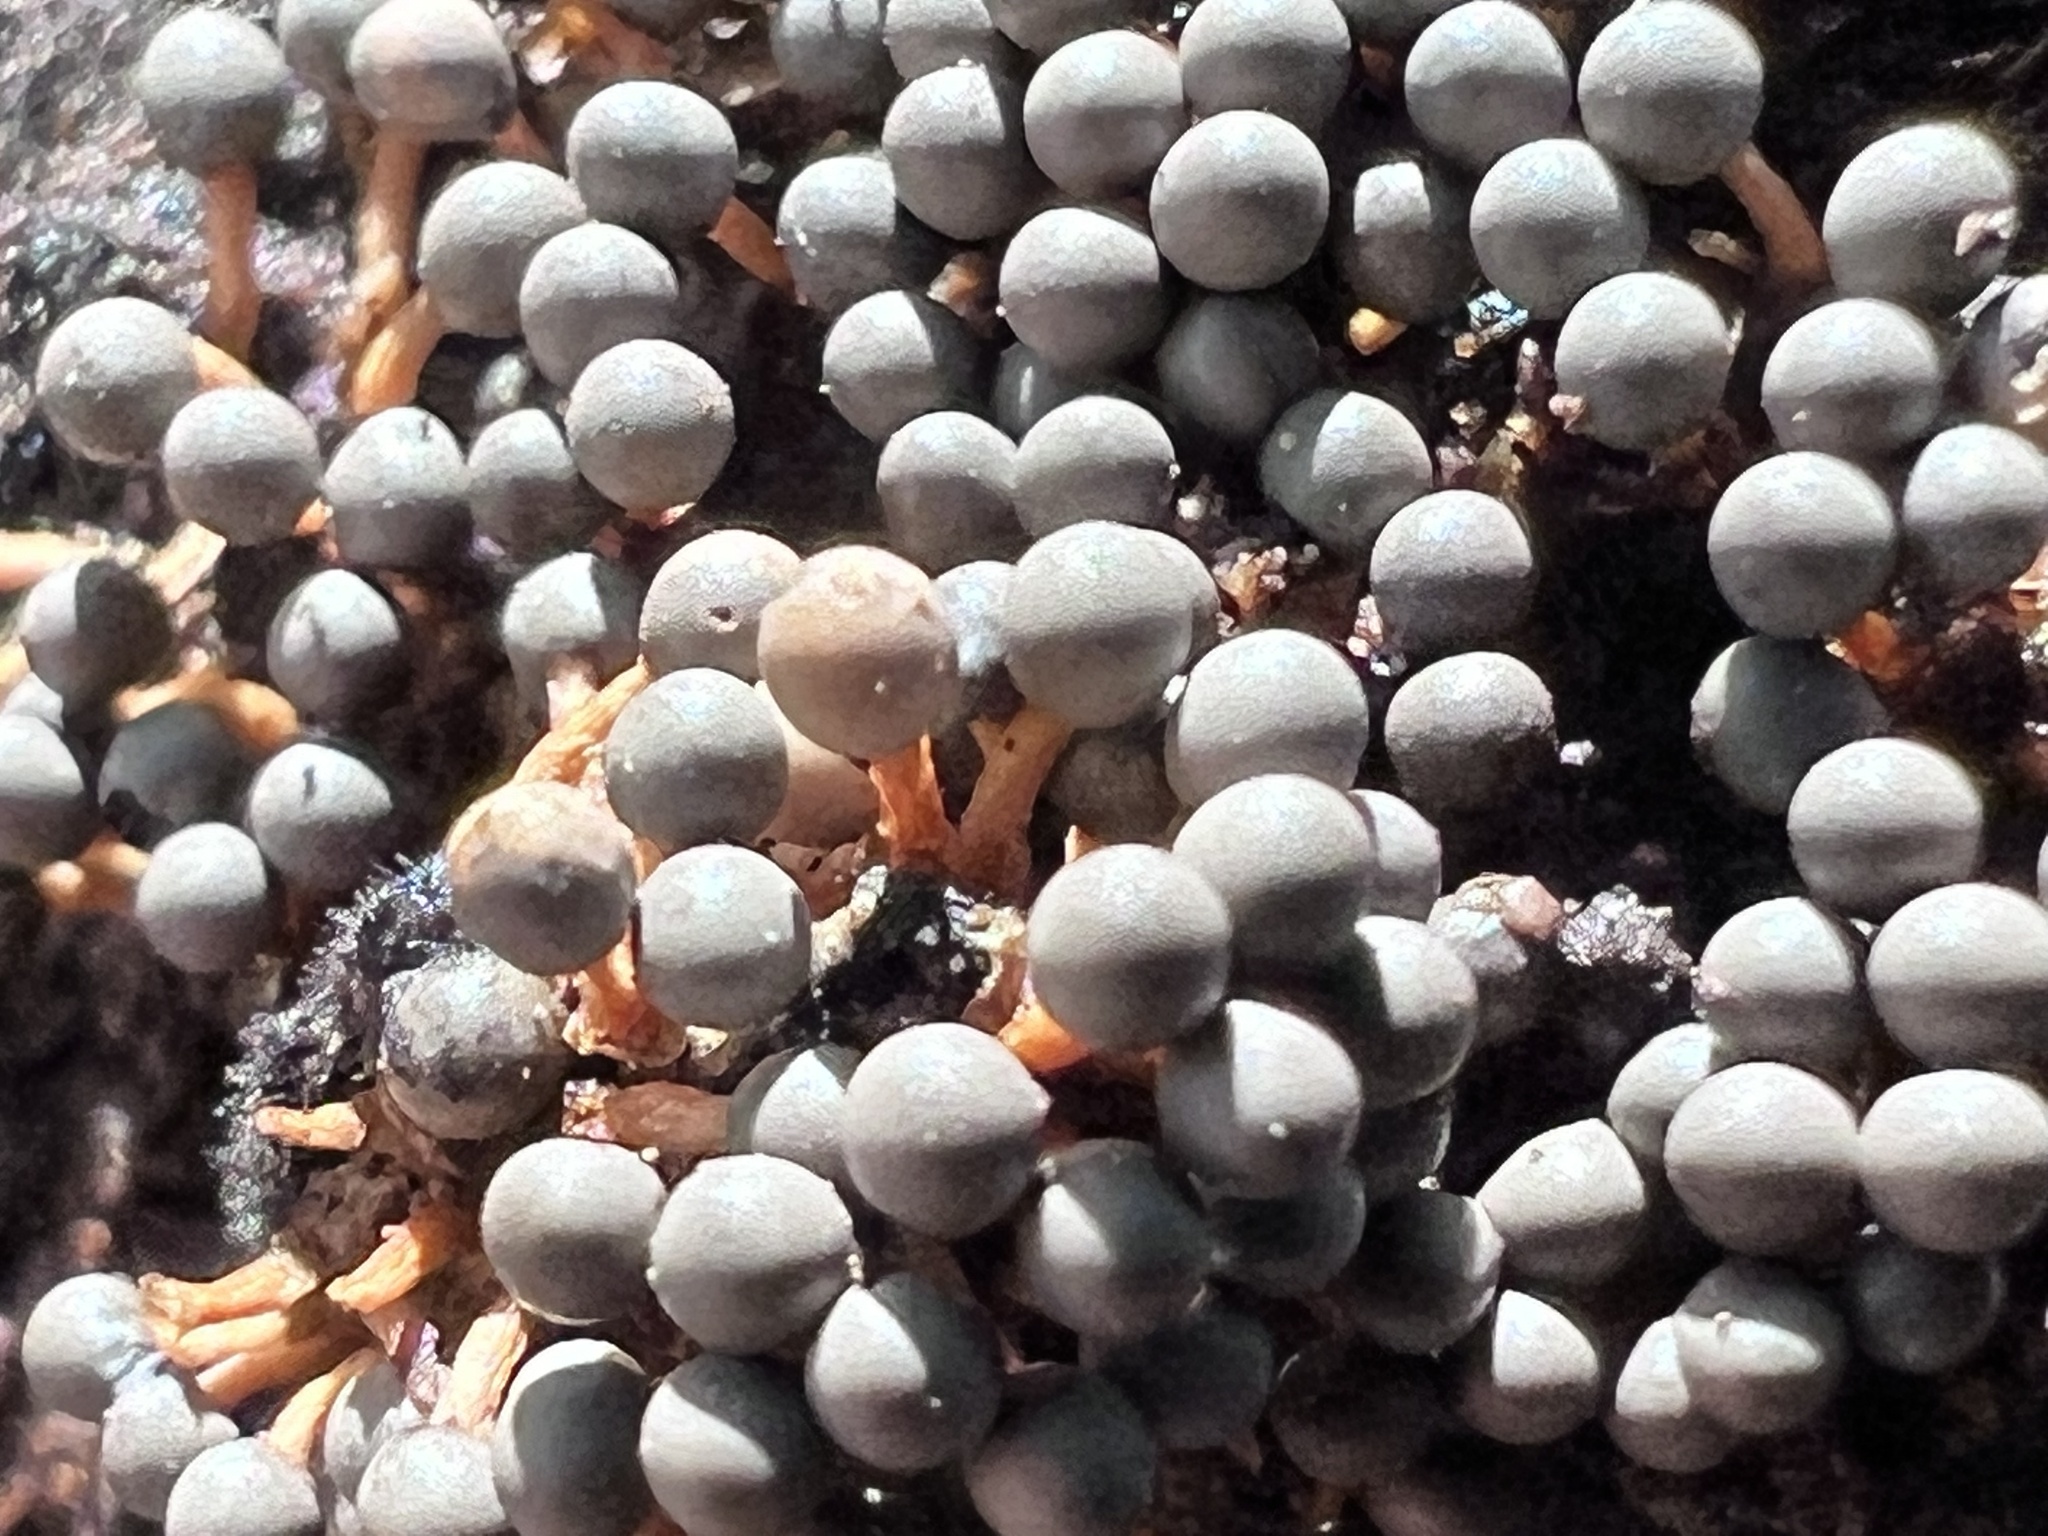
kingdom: Protozoa
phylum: Mycetozoa
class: Myxomycetes
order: Physarales
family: Didymiaceae
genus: Diderma
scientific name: Diderma floriforme
